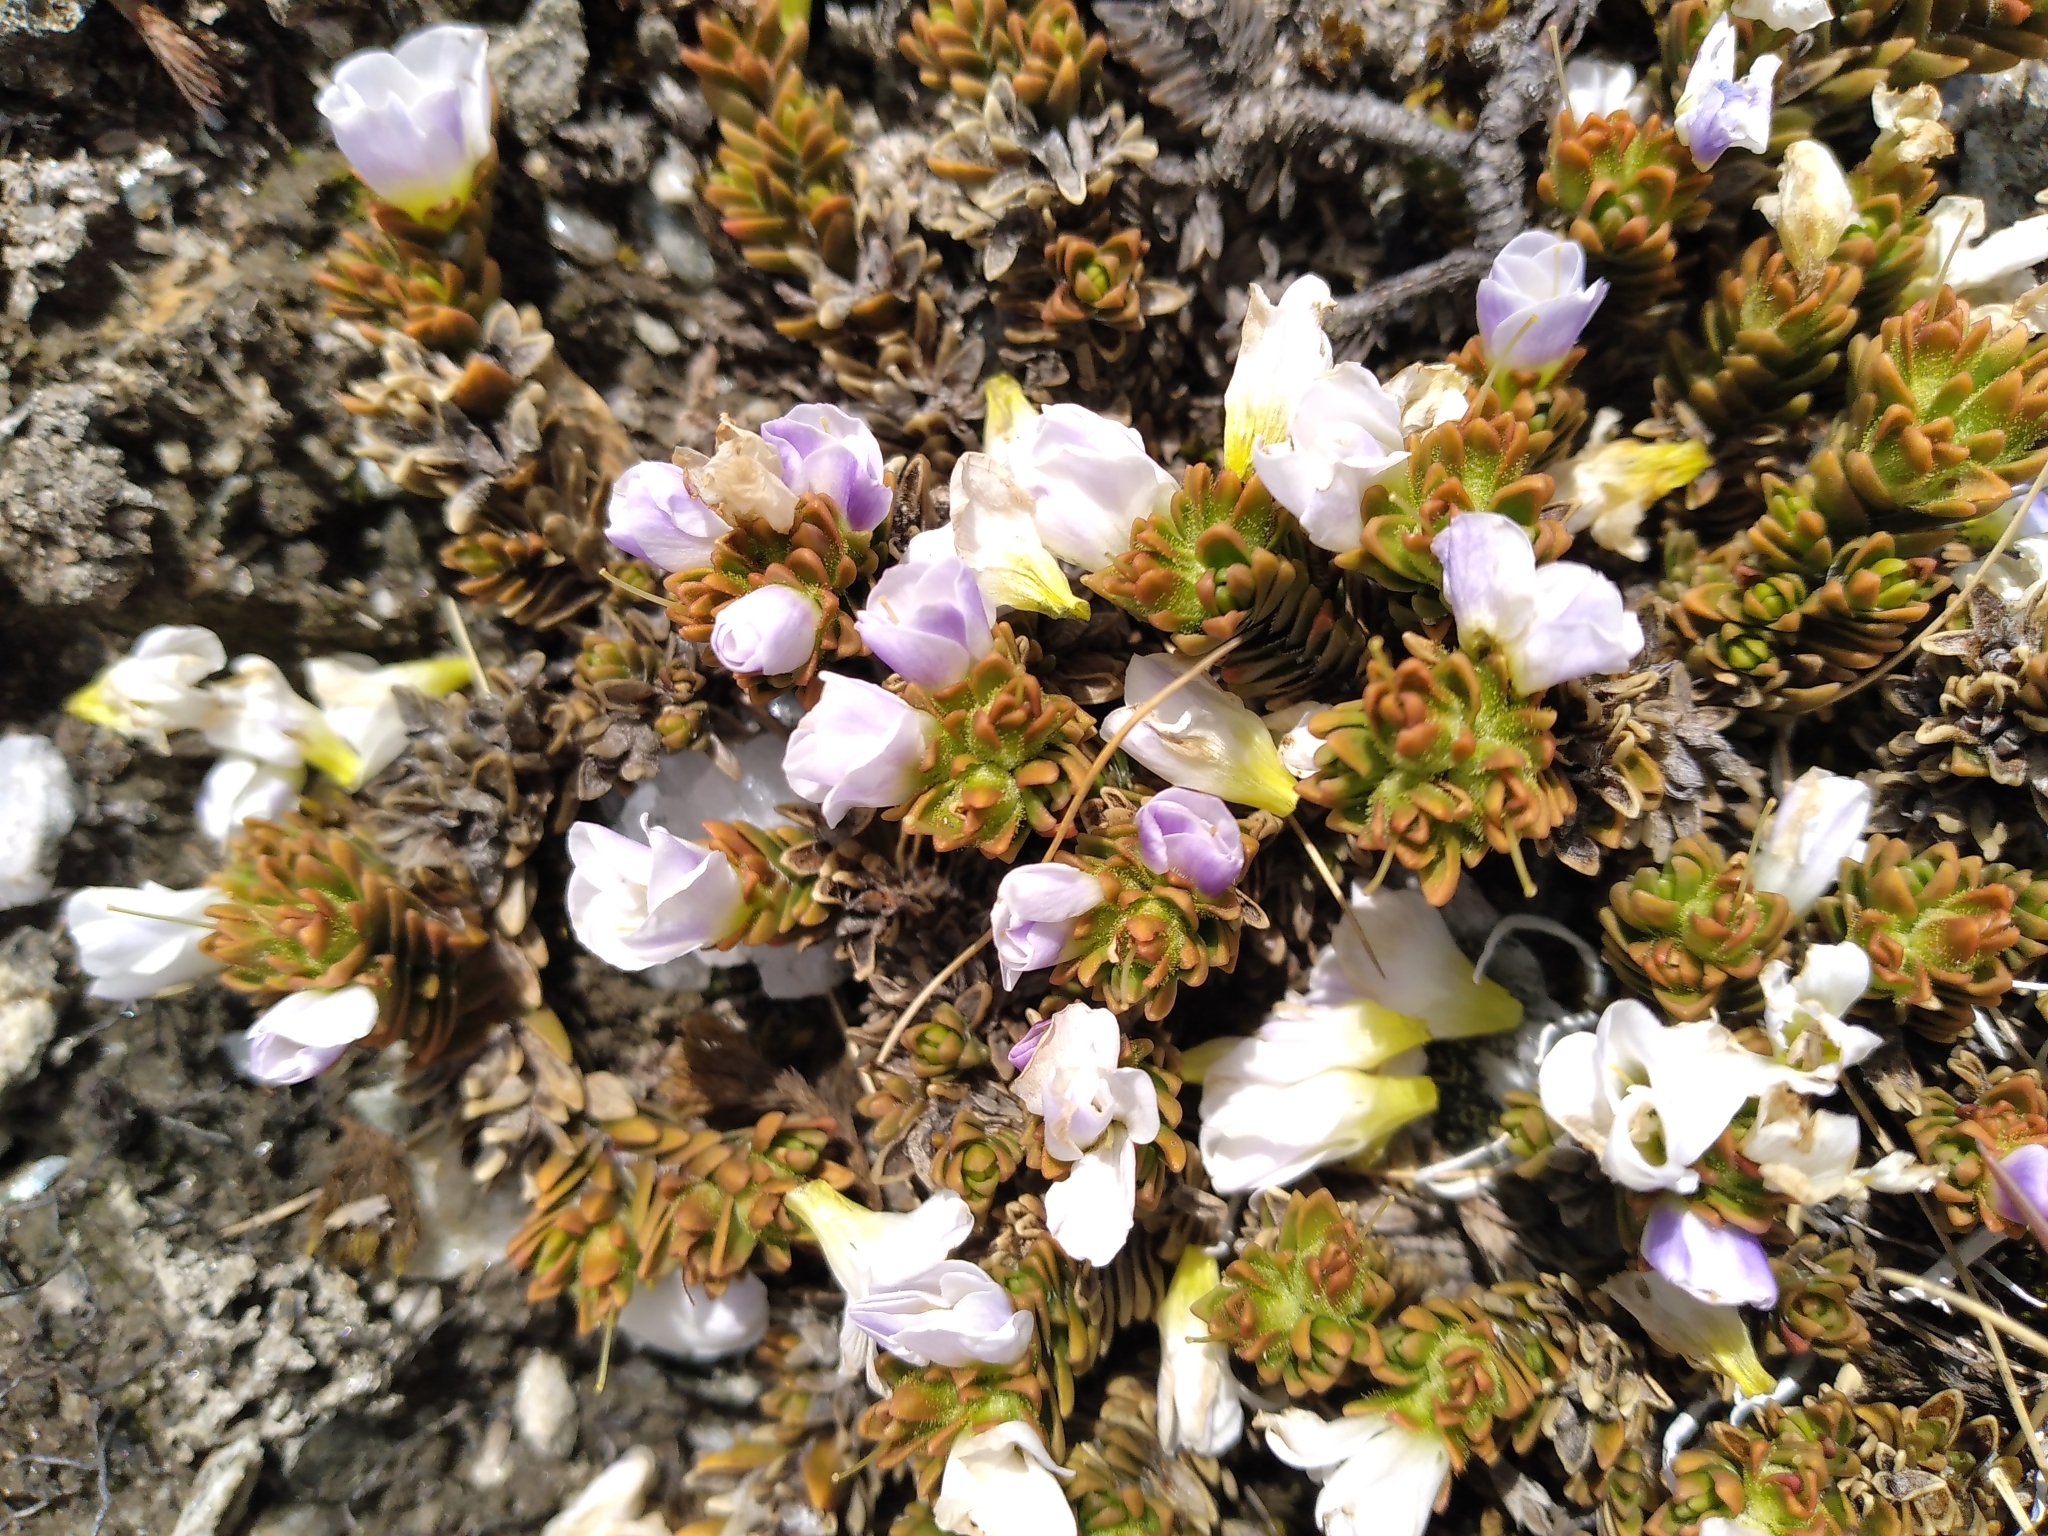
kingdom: Plantae
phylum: Tracheophyta
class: Magnoliopsida
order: Lamiales
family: Plantaginaceae
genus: Veronica
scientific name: Veronica densifolia
